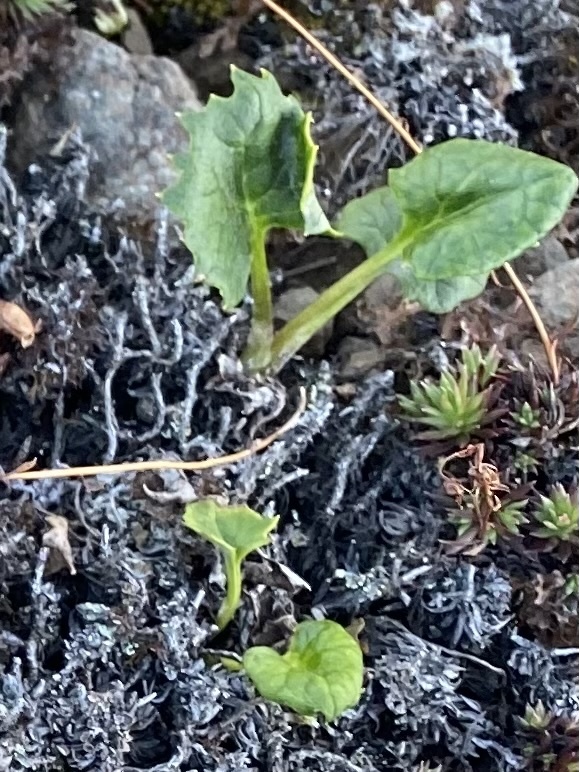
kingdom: Plantae
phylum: Tracheophyta
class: Magnoliopsida
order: Asterales
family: Asteraceae
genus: Endocellion
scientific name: Endocellion glaciale
